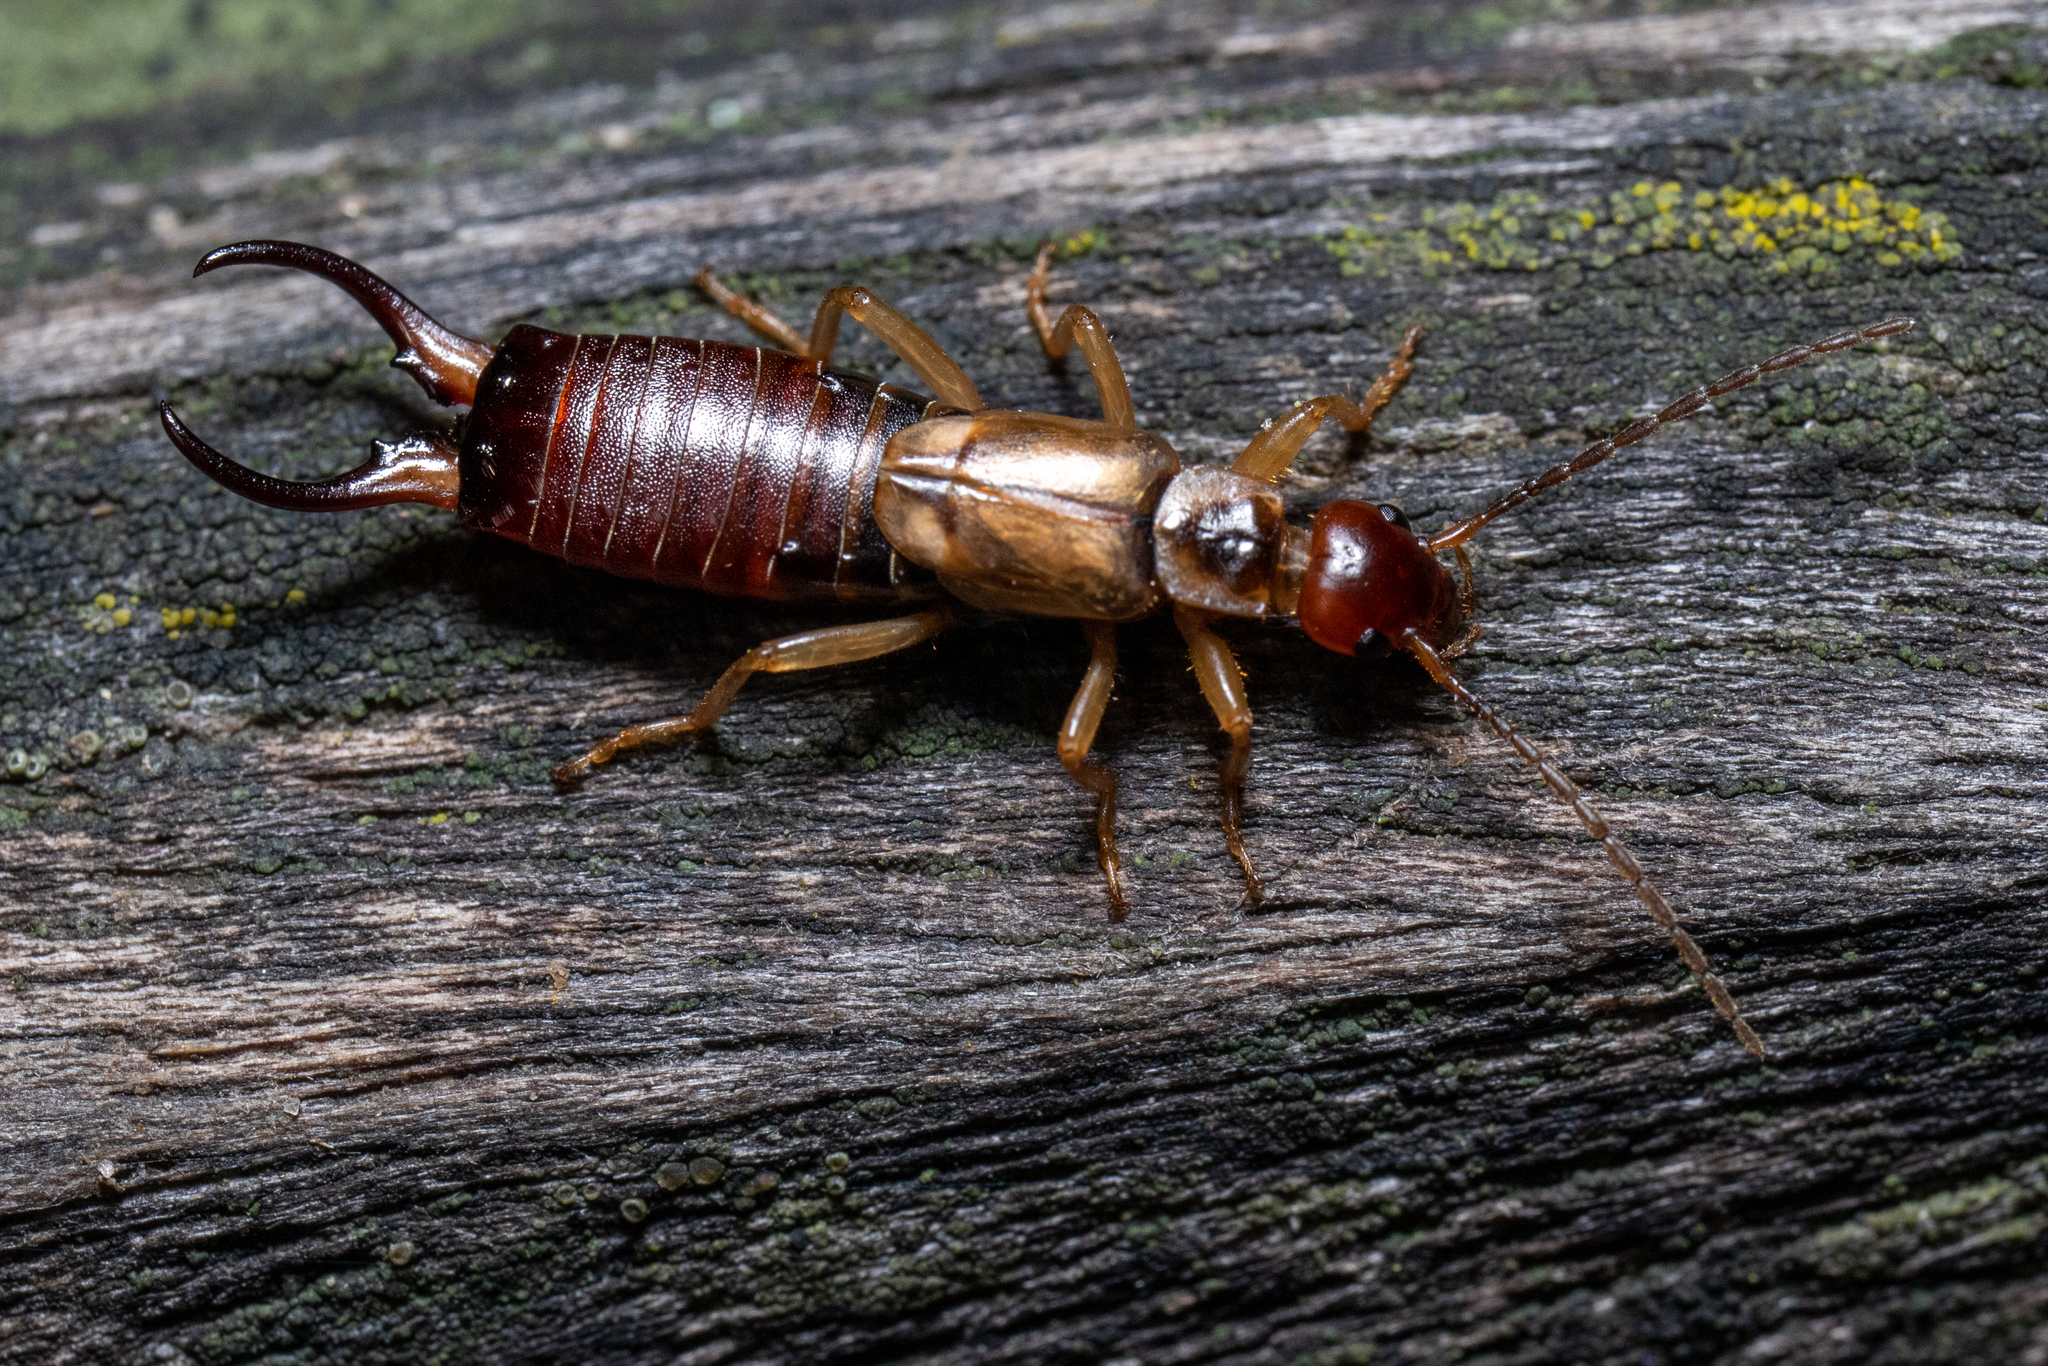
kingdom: Animalia
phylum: Arthropoda
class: Insecta
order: Dermaptera
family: Forficulidae
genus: Forficula
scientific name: Forficula
